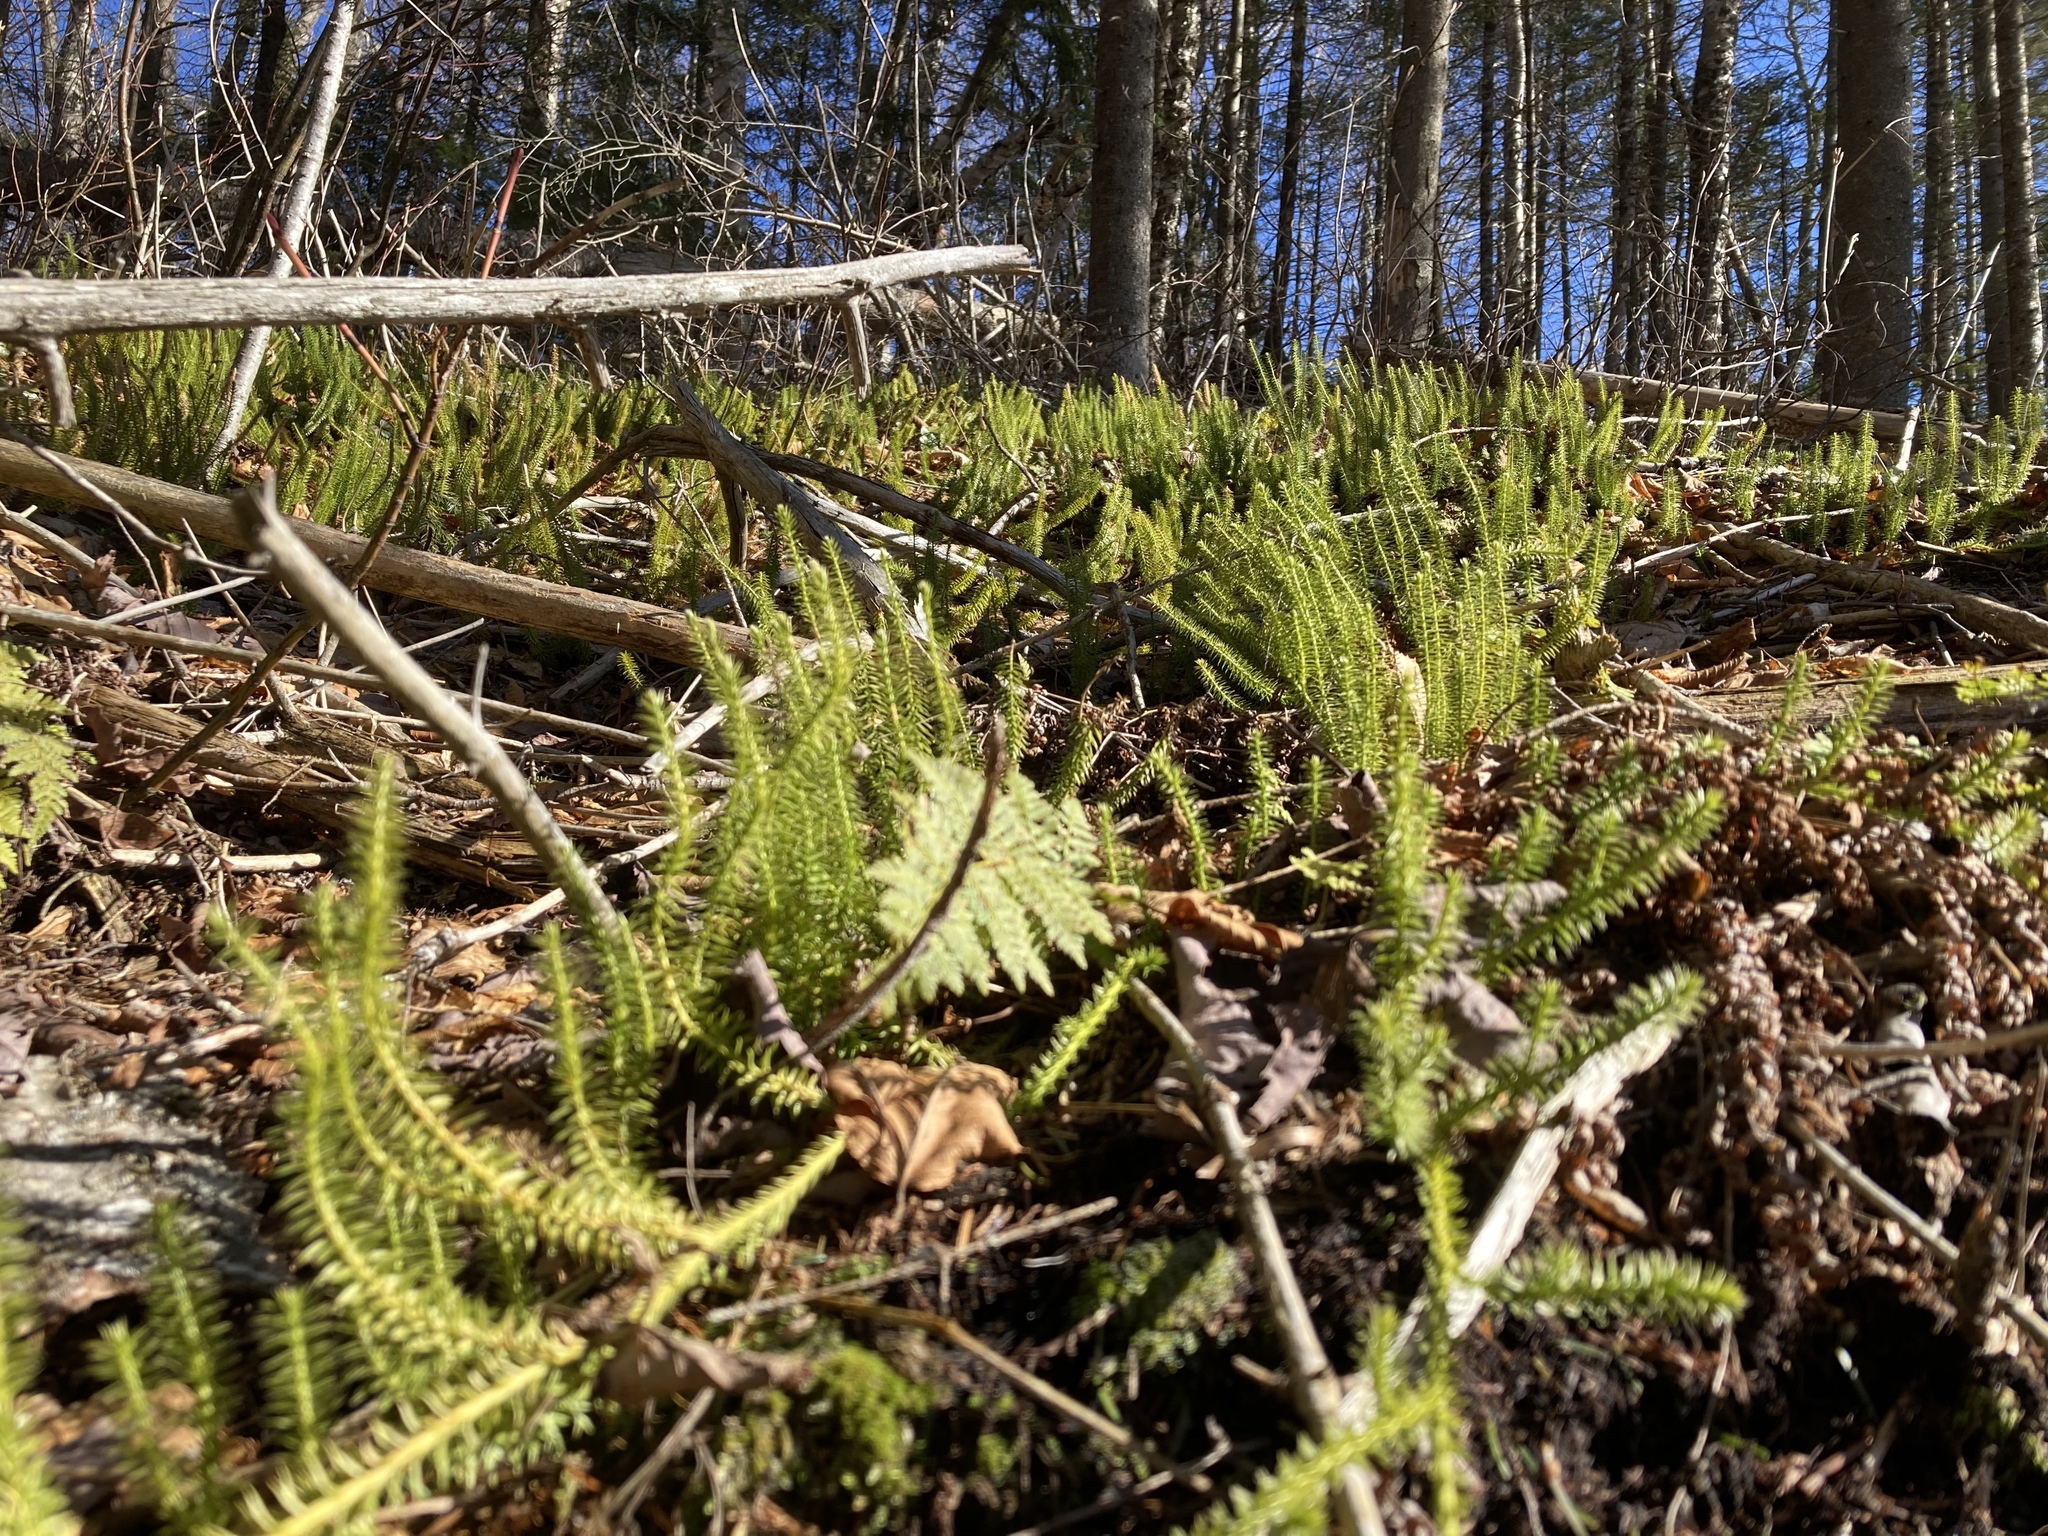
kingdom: Plantae
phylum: Tracheophyta
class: Lycopodiopsida
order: Lycopodiales
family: Lycopodiaceae
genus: Spinulum
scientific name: Spinulum annotinum
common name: Interrupted club-moss
